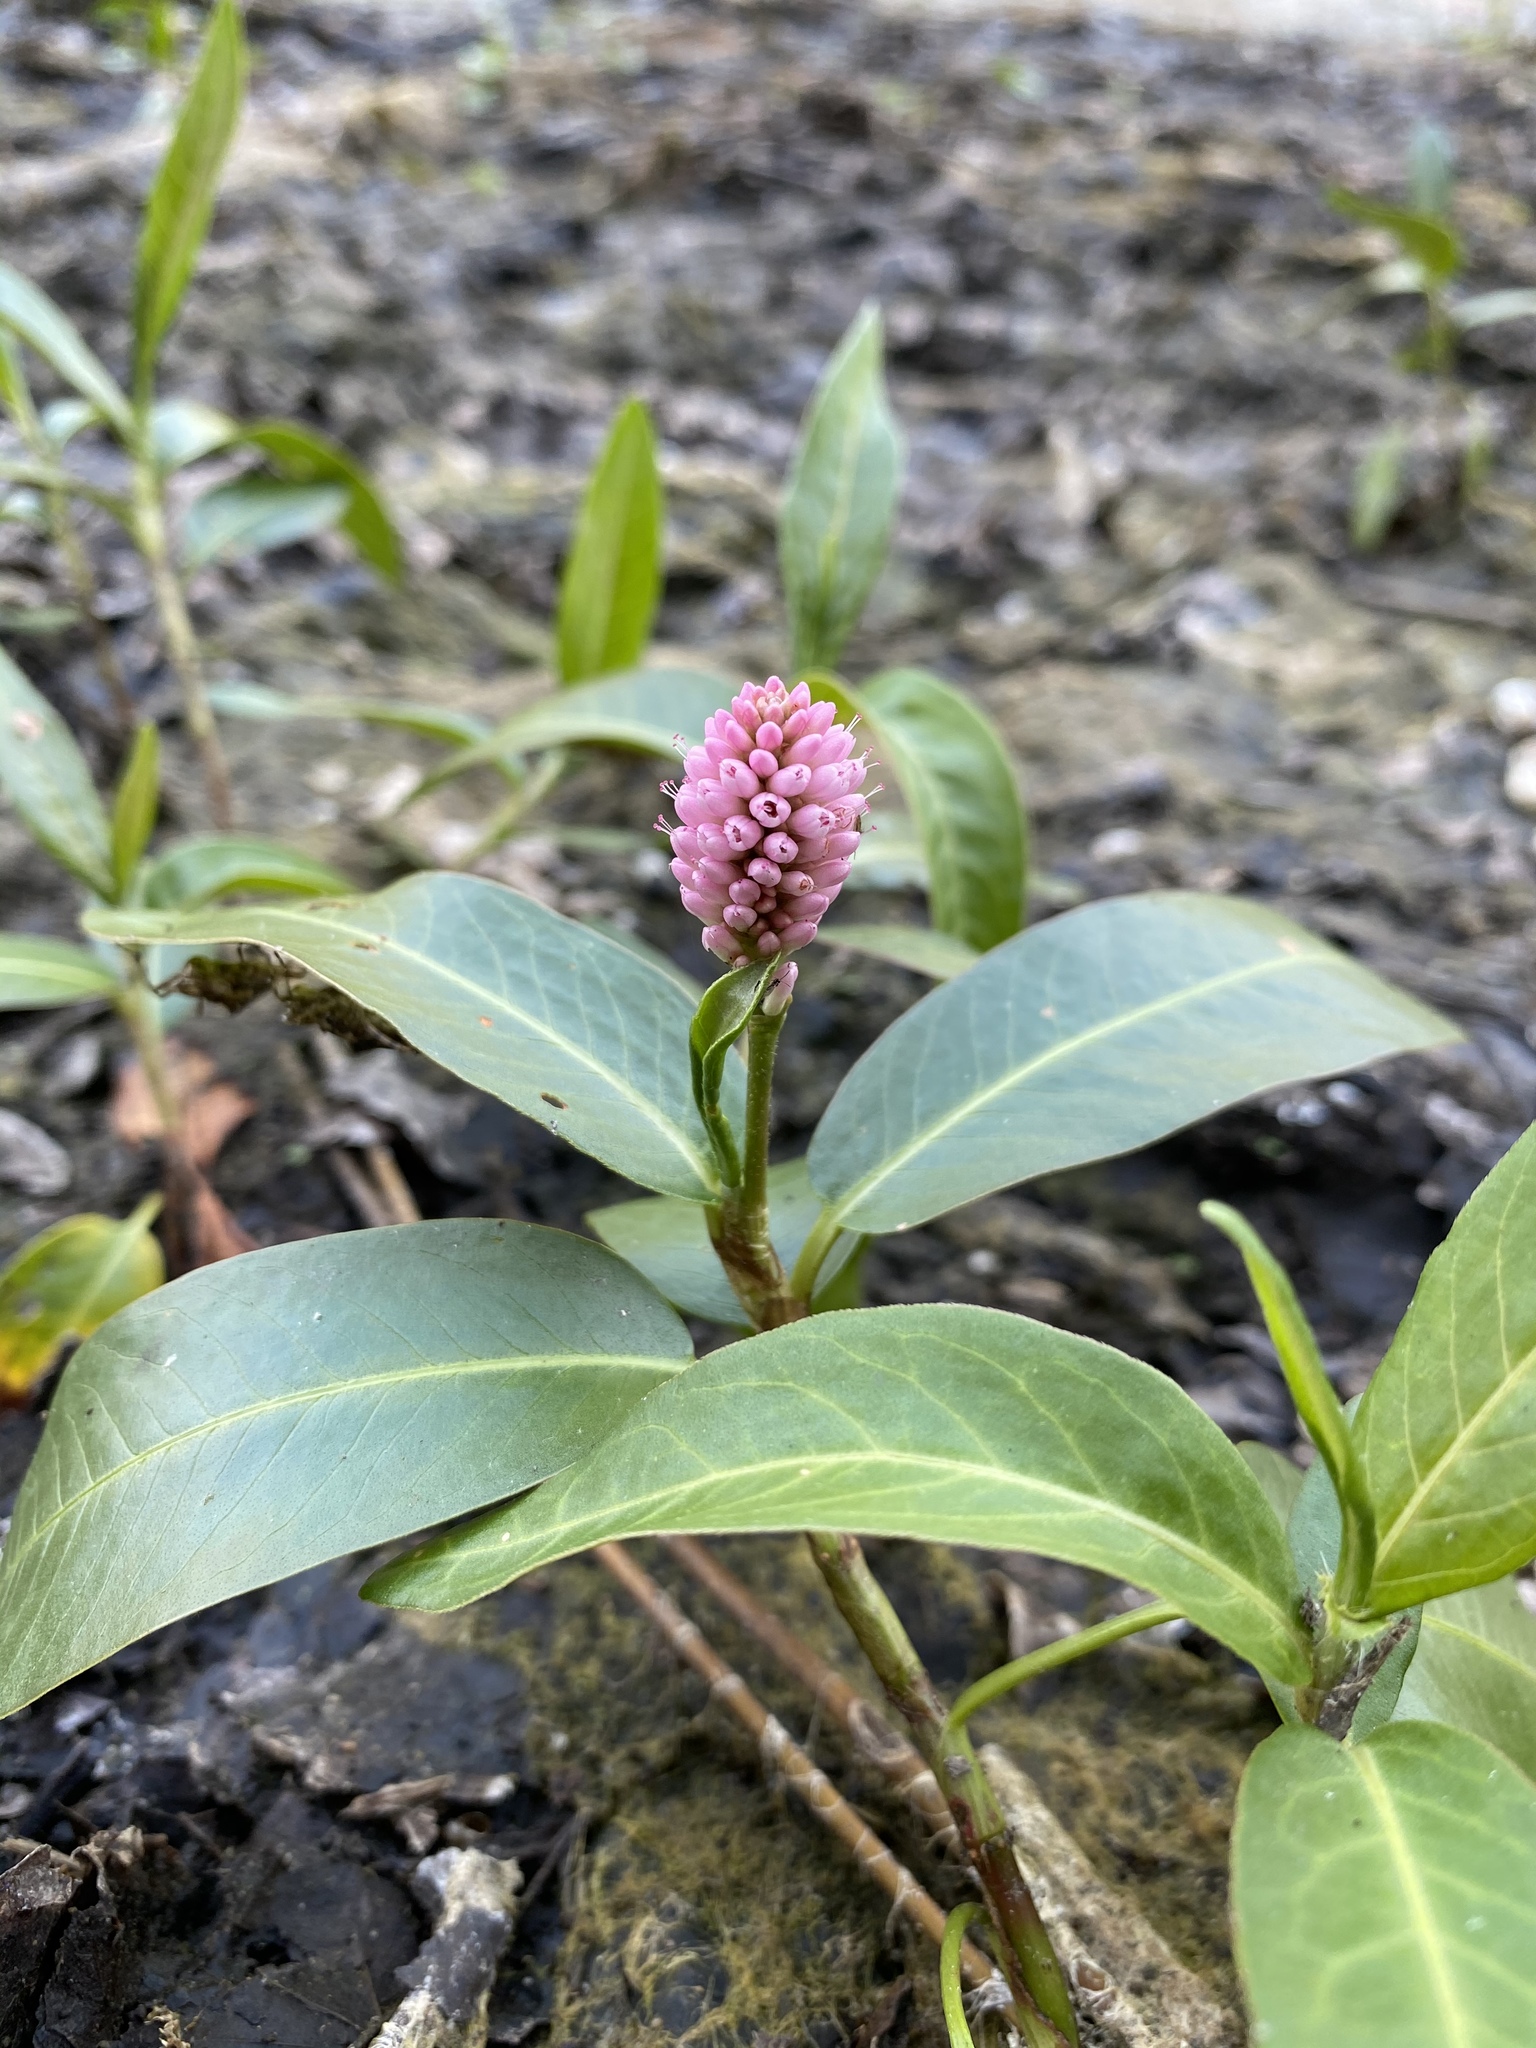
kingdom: Plantae
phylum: Tracheophyta
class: Magnoliopsida
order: Caryophyllales
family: Polygonaceae
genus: Persicaria
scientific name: Persicaria amphibia
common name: Amphibious bistort
